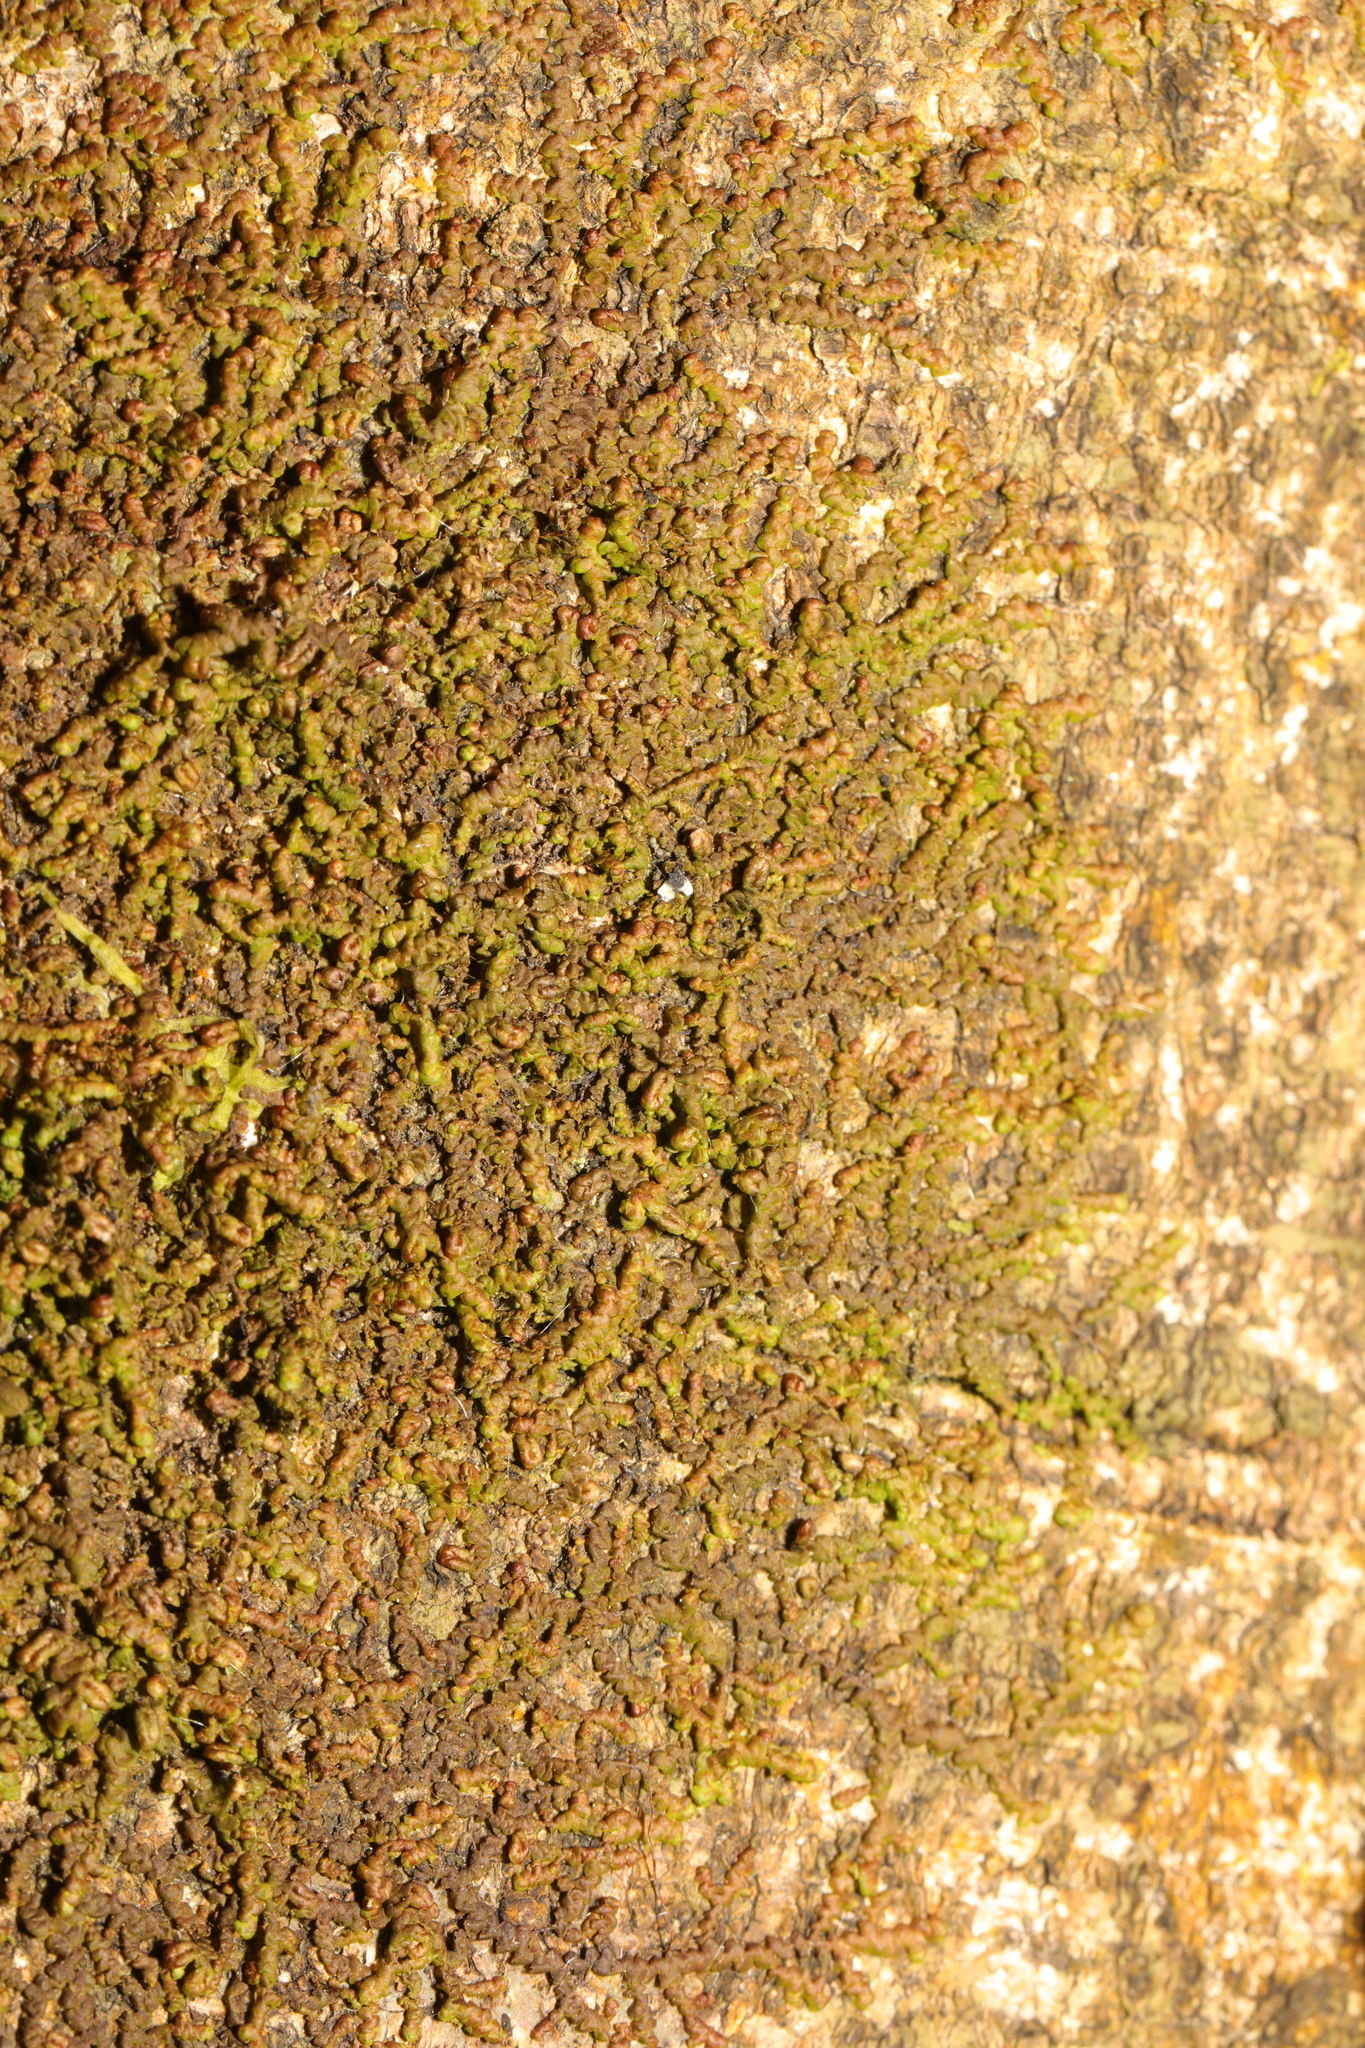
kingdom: Plantae
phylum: Marchantiophyta
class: Jungermanniopsida
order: Porellales
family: Frullaniaceae
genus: Frullania
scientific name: Frullania dilatata
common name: Dilated scalewort
